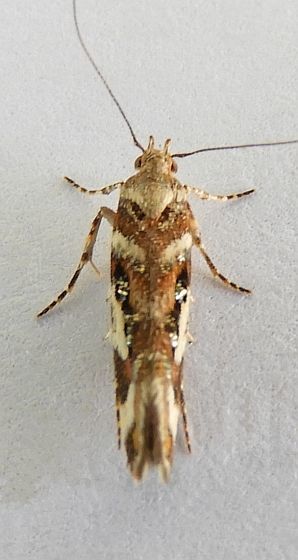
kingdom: Animalia
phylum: Arthropoda
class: Insecta
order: Lepidoptera
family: Gelechiidae
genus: Aristotelia
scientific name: Aristotelia elegantella
